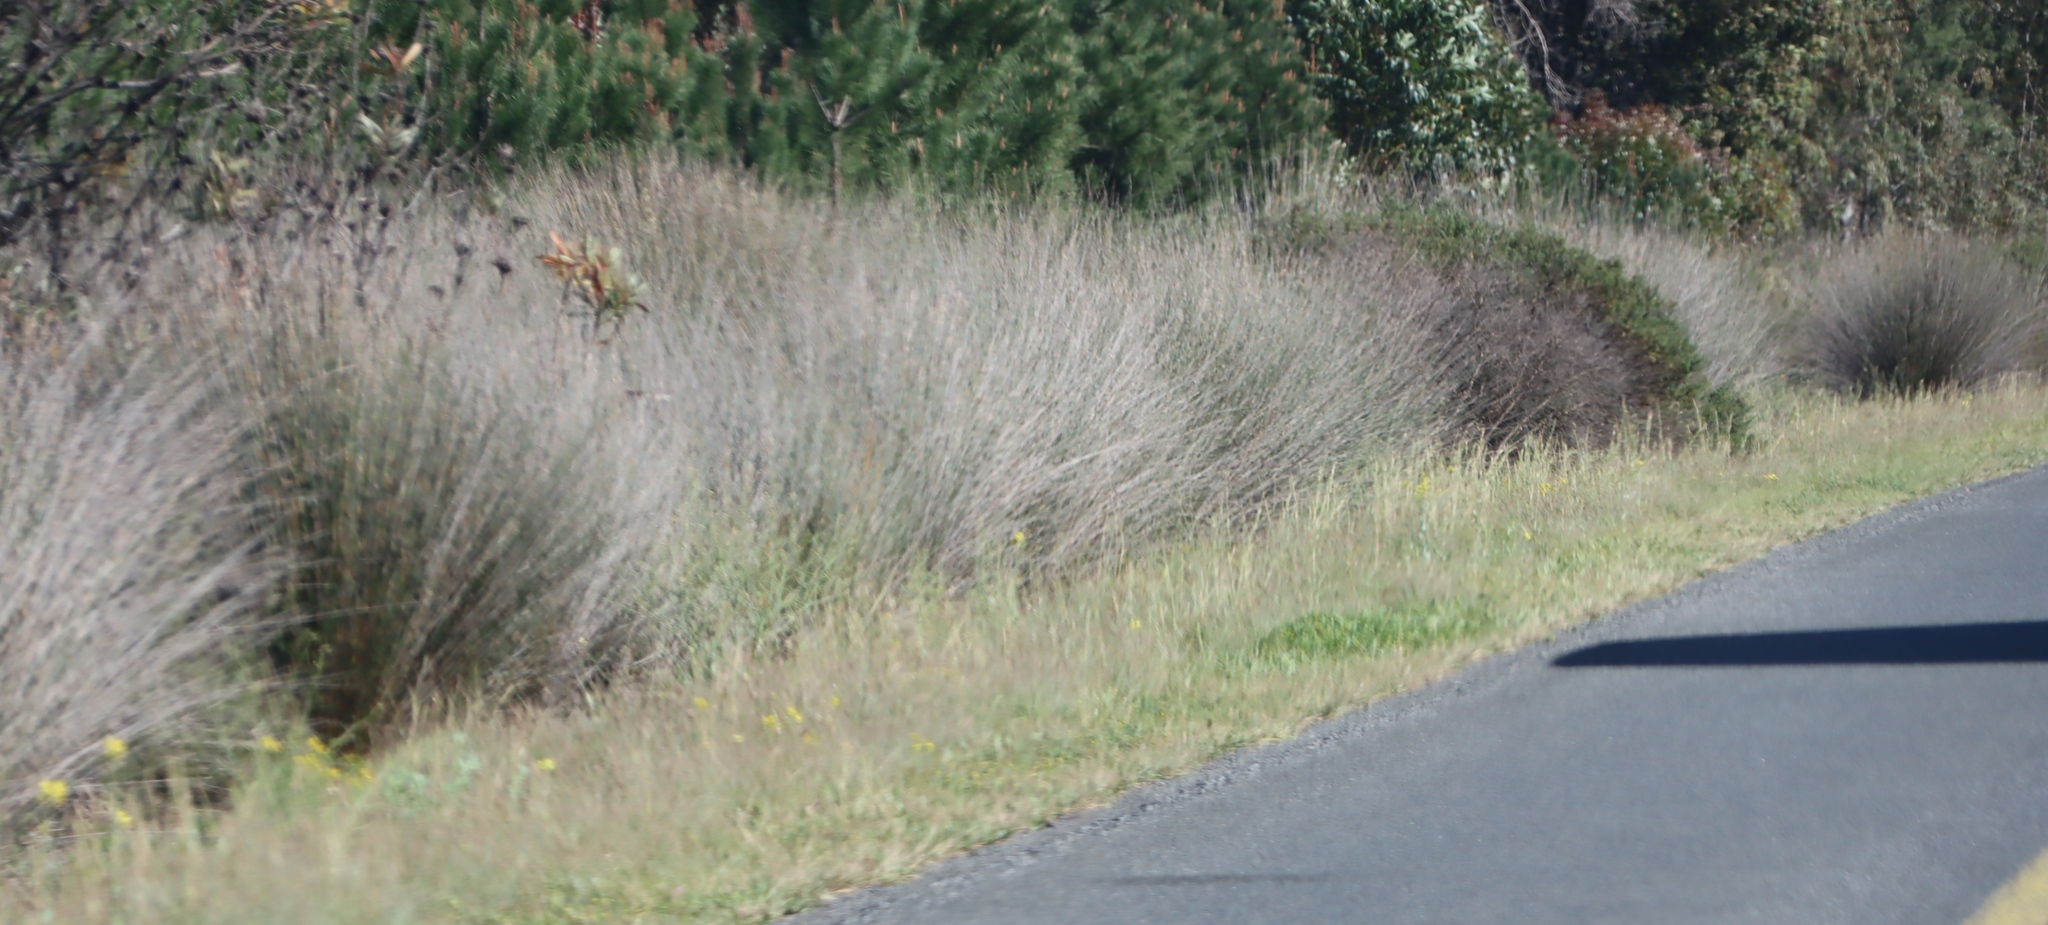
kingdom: Plantae
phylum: Tracheophyta
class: Liliopsida
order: Poales
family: Restionaceae
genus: Thamnochortus
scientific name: Thamnochortus insignis
